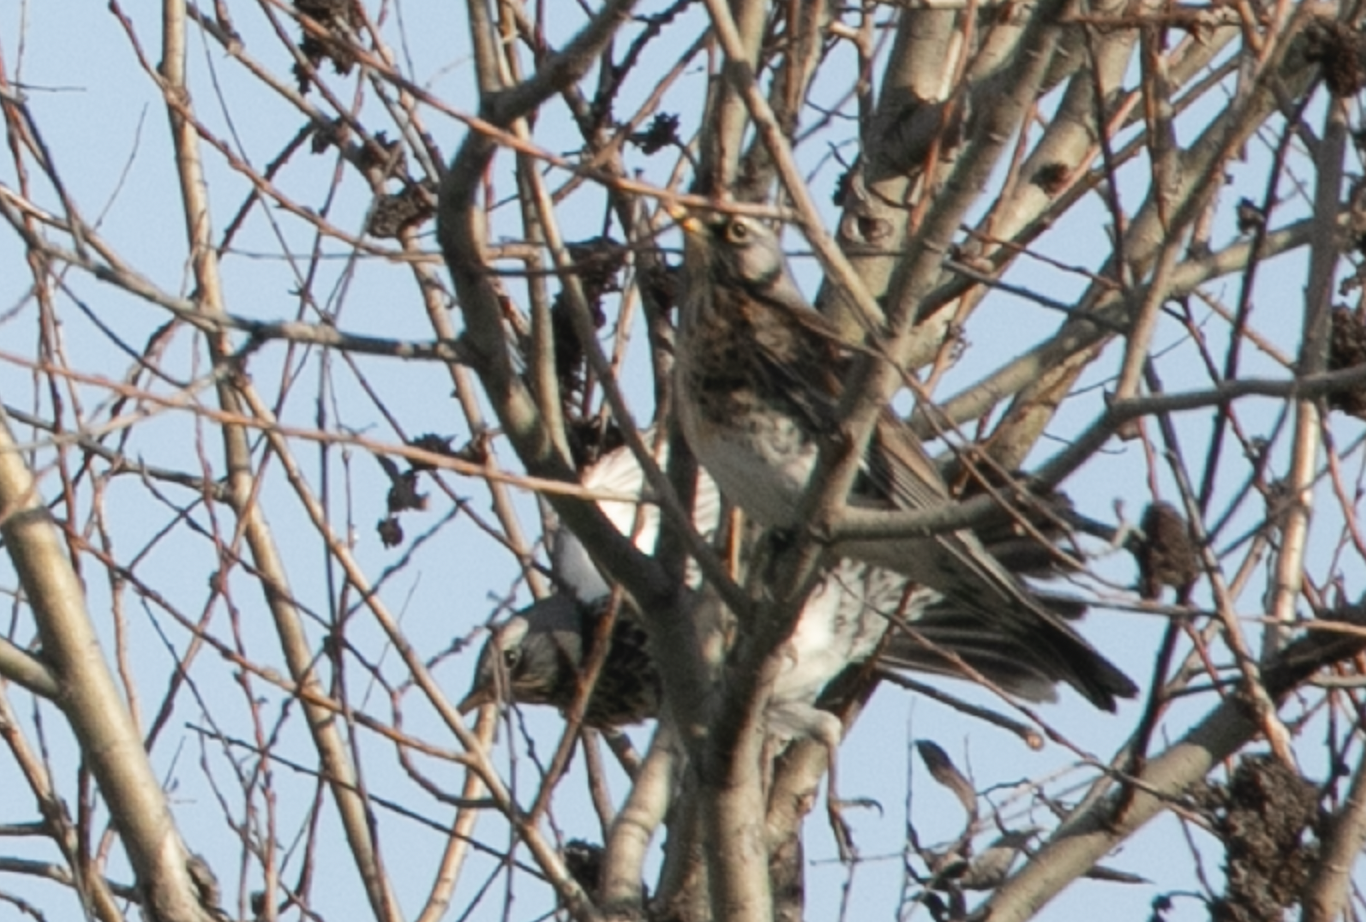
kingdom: Animalia
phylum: Chordata
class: Aves
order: Passeriformes
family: Turdidae
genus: Turdus
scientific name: Turdus pilaris
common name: Fieldfare
